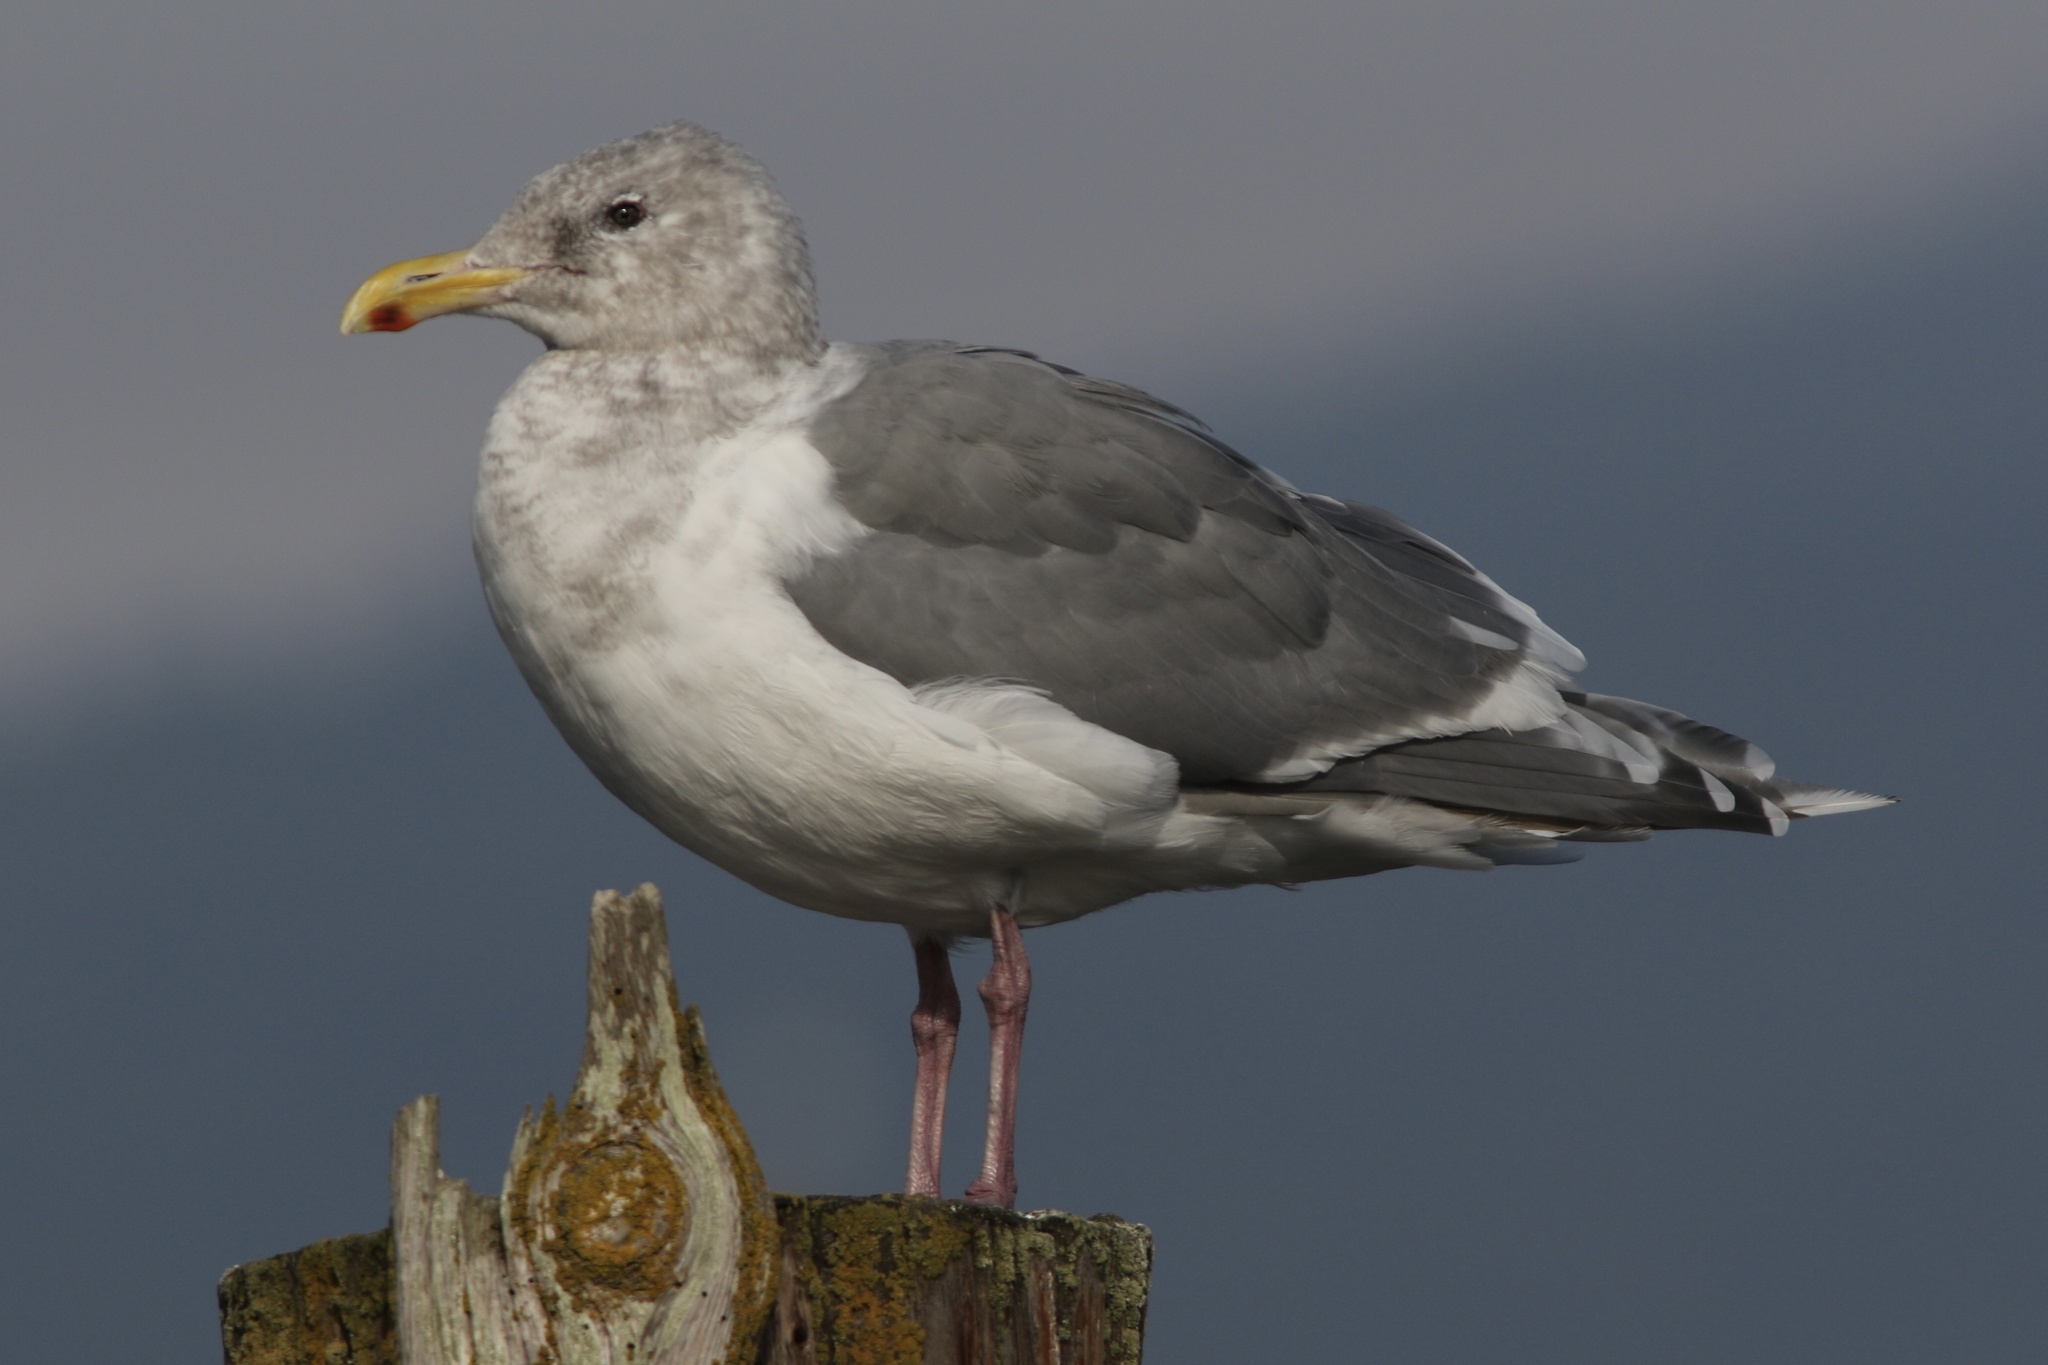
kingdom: Animalia
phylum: Chordata
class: Aves
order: Charadriiformes
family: Laridae
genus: Larus
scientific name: Larus
